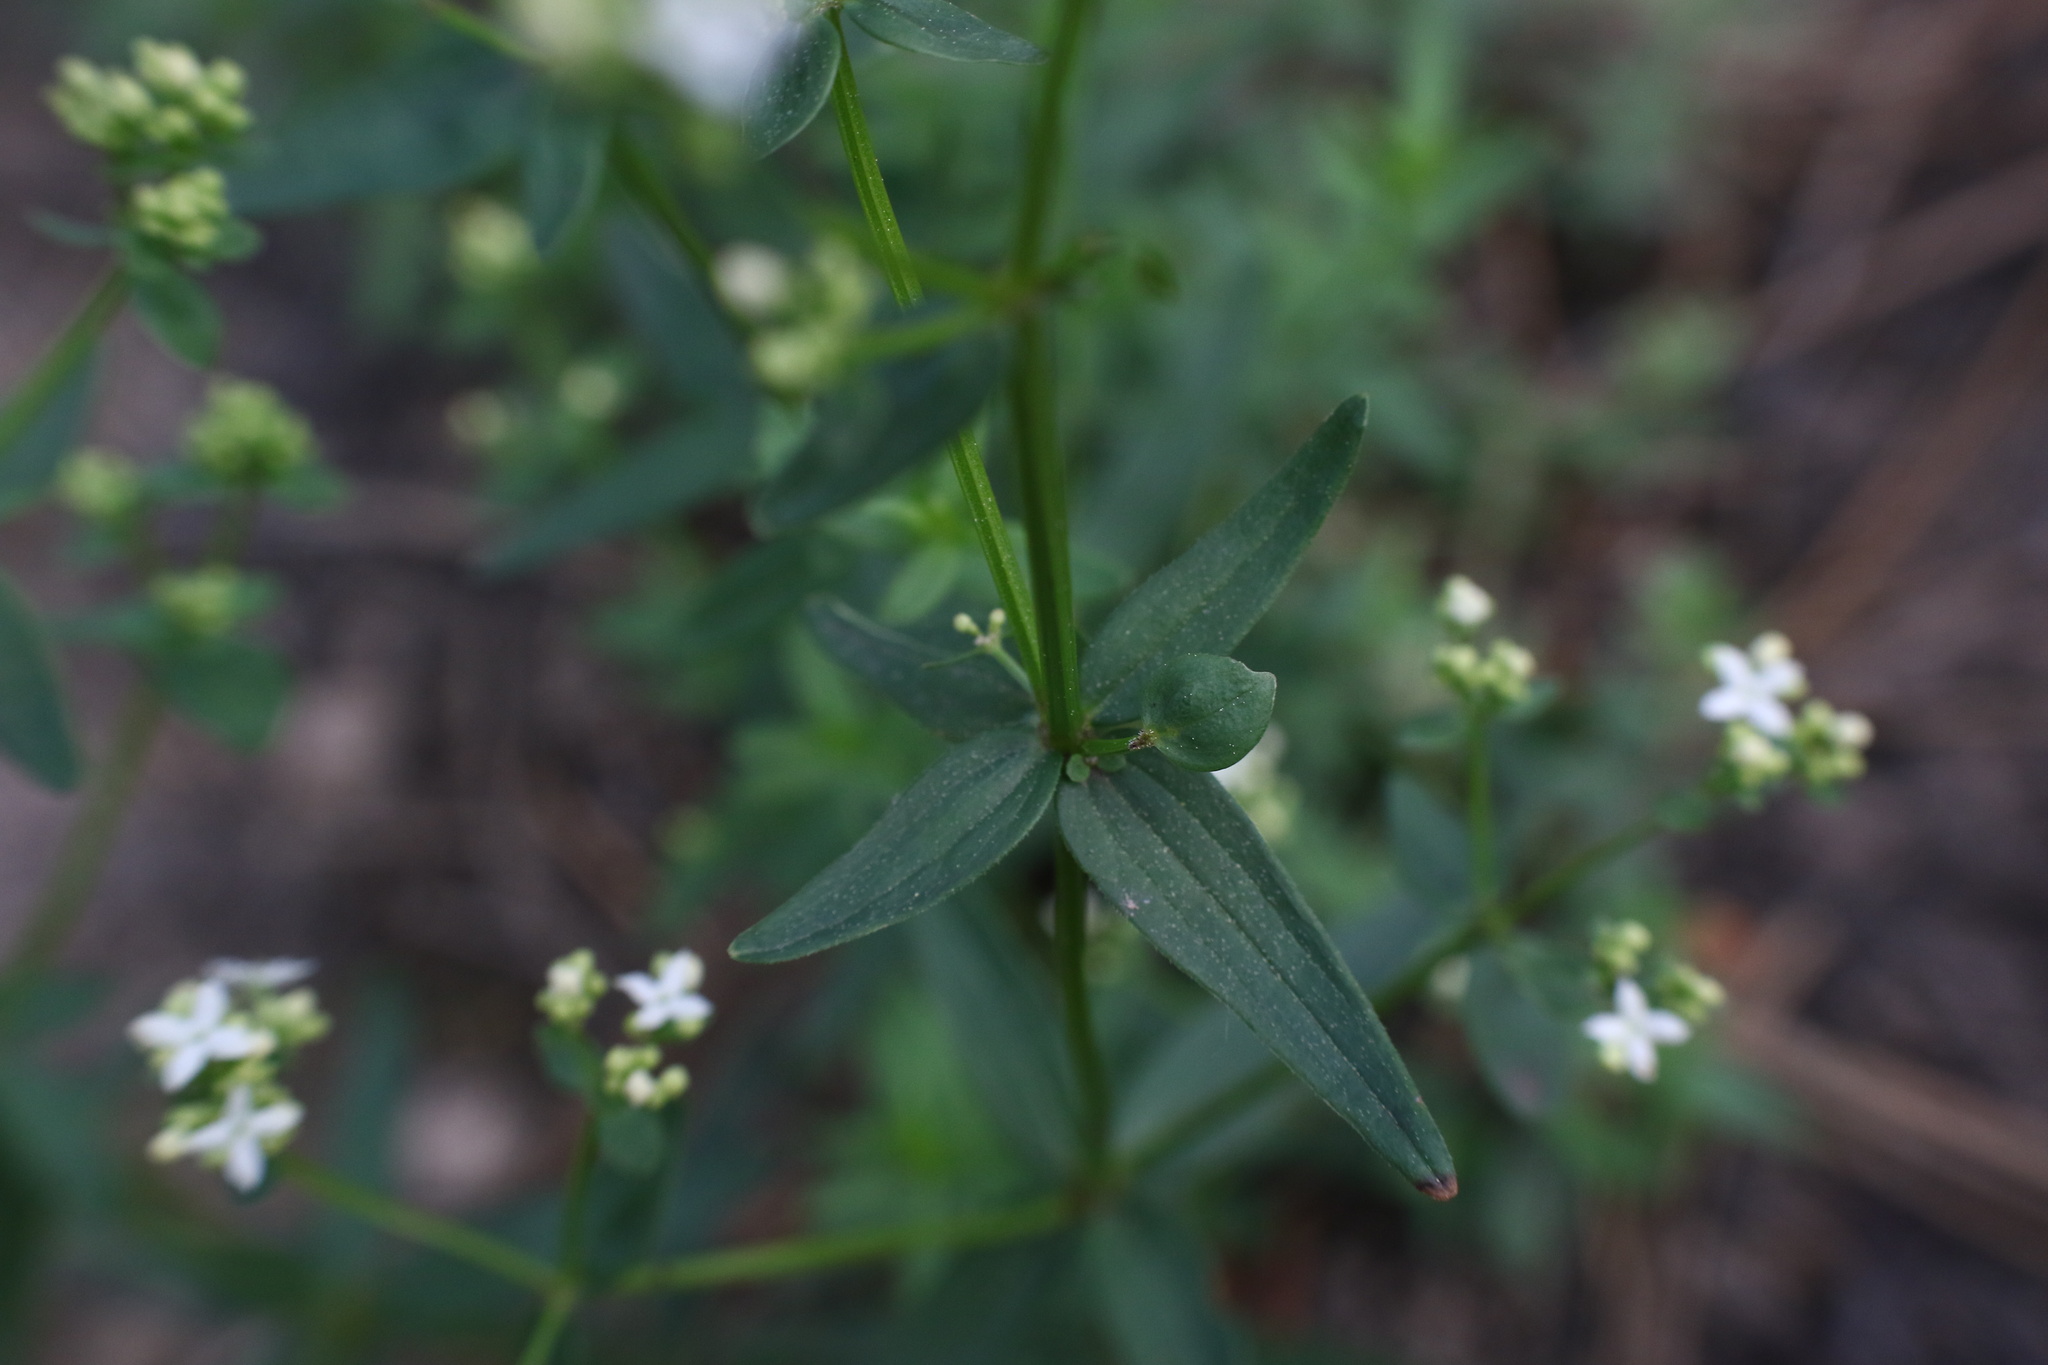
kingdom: Plantae
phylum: Tracheophyta
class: Magnoliopsida
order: Gentianales
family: Rubiaceae
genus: Galium
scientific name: Galium boreale
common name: Northern bedstraw
